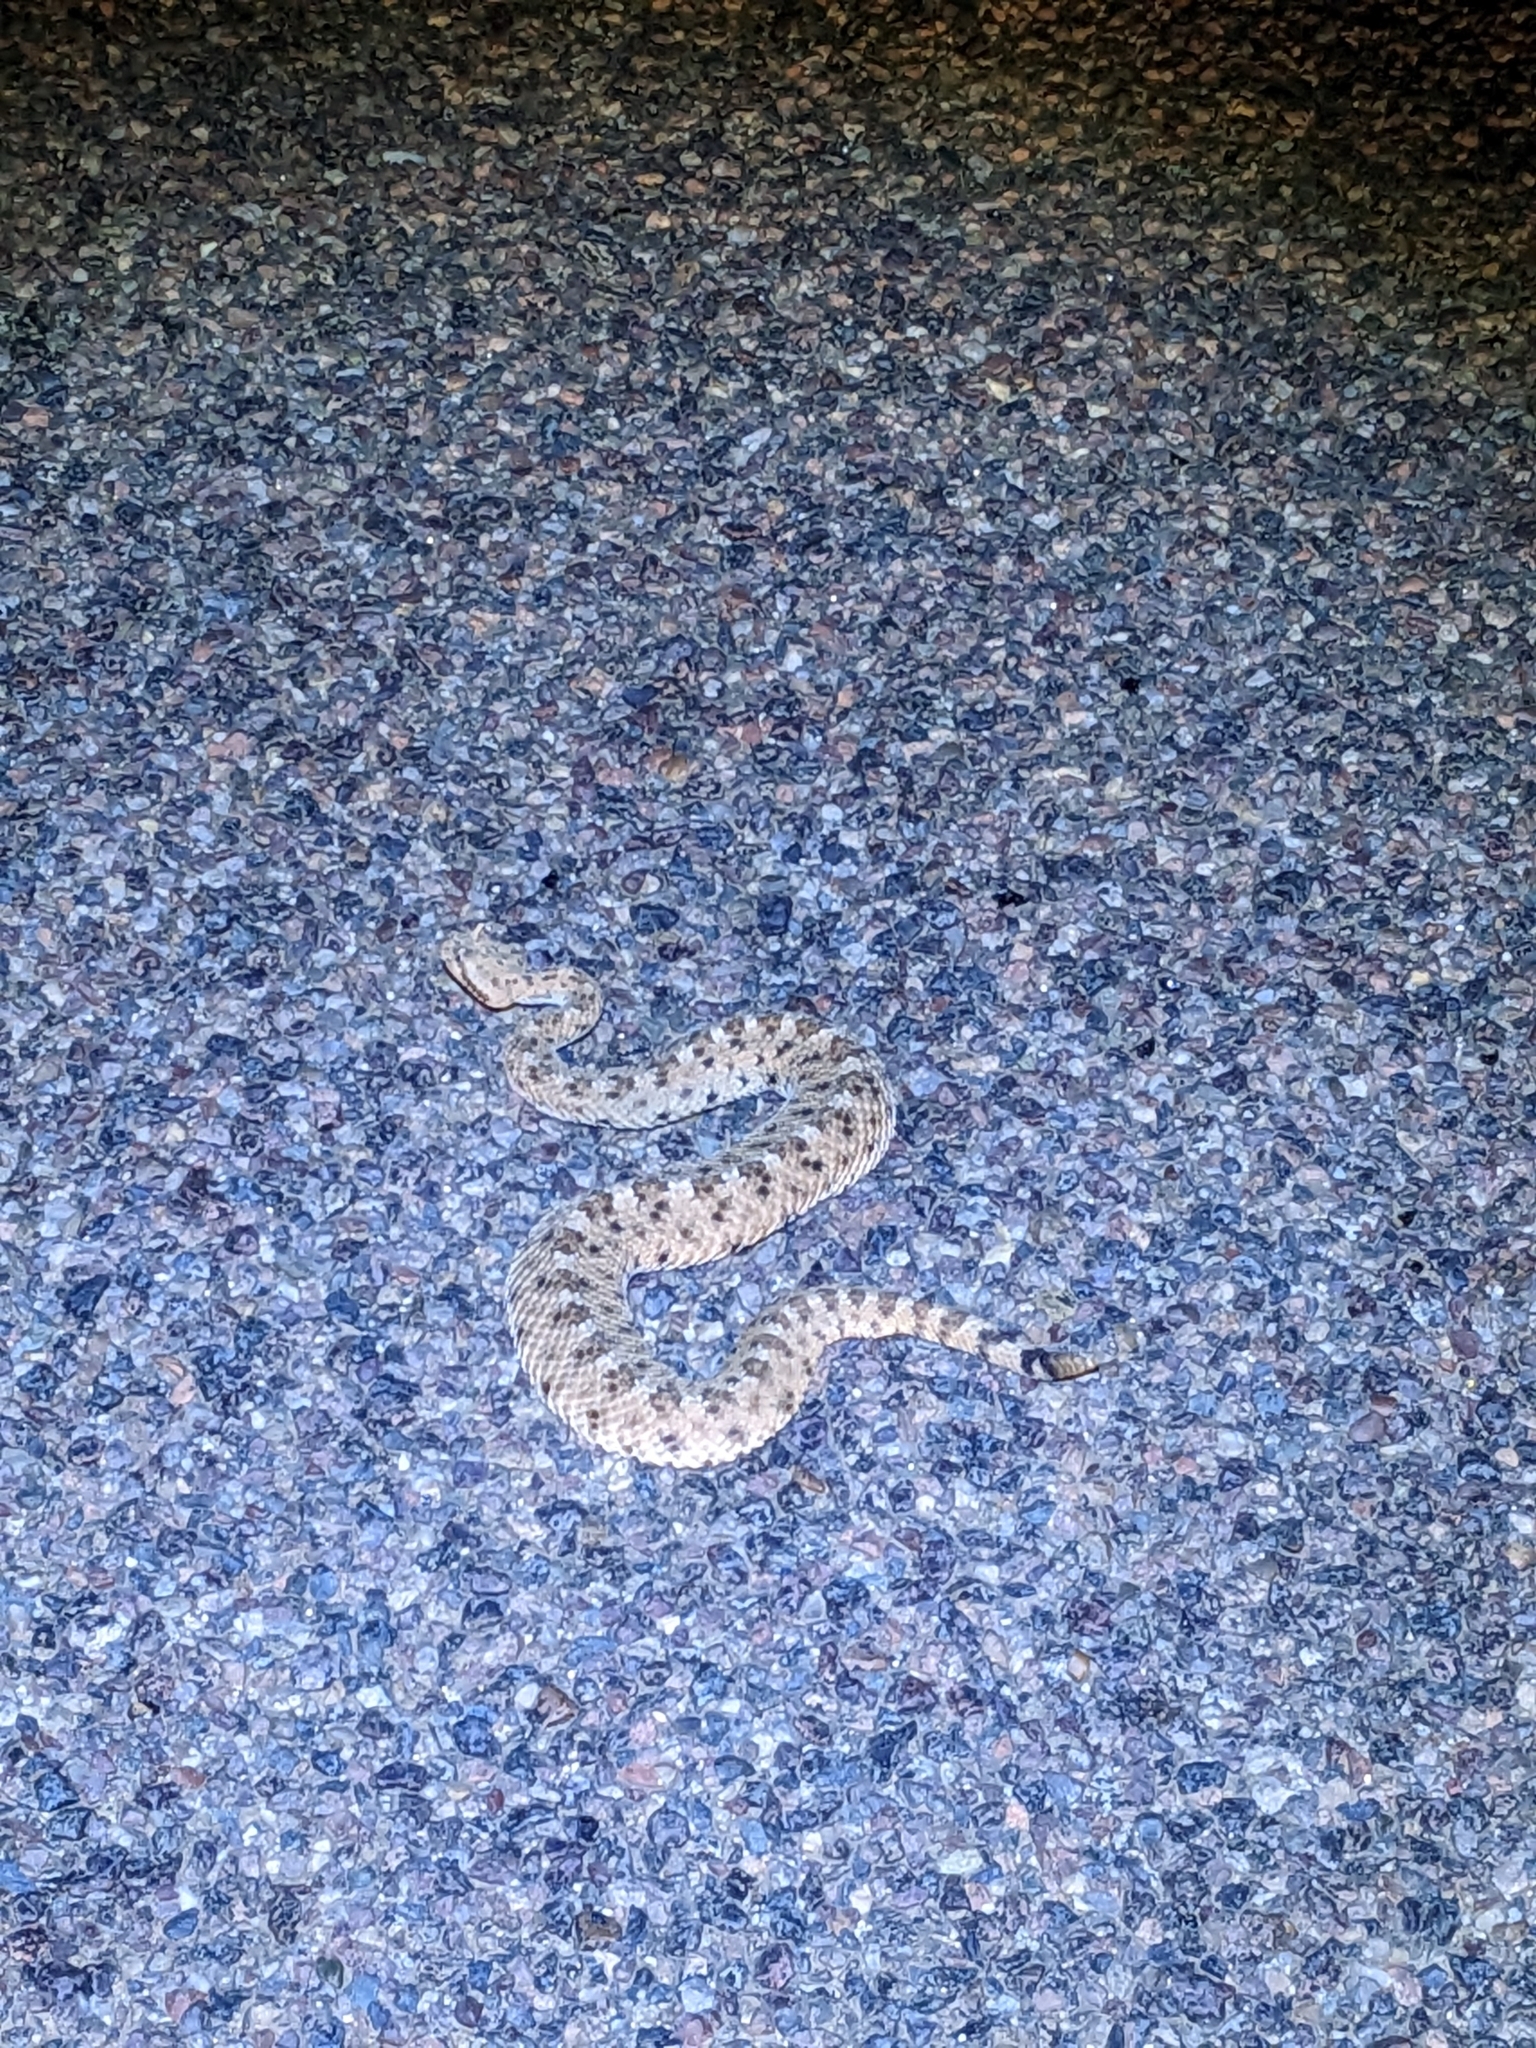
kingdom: Animalia
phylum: Chordata
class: Squamata
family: Viperidae
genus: Crotalus
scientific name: Crotalus cerastes
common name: Sidewinder
